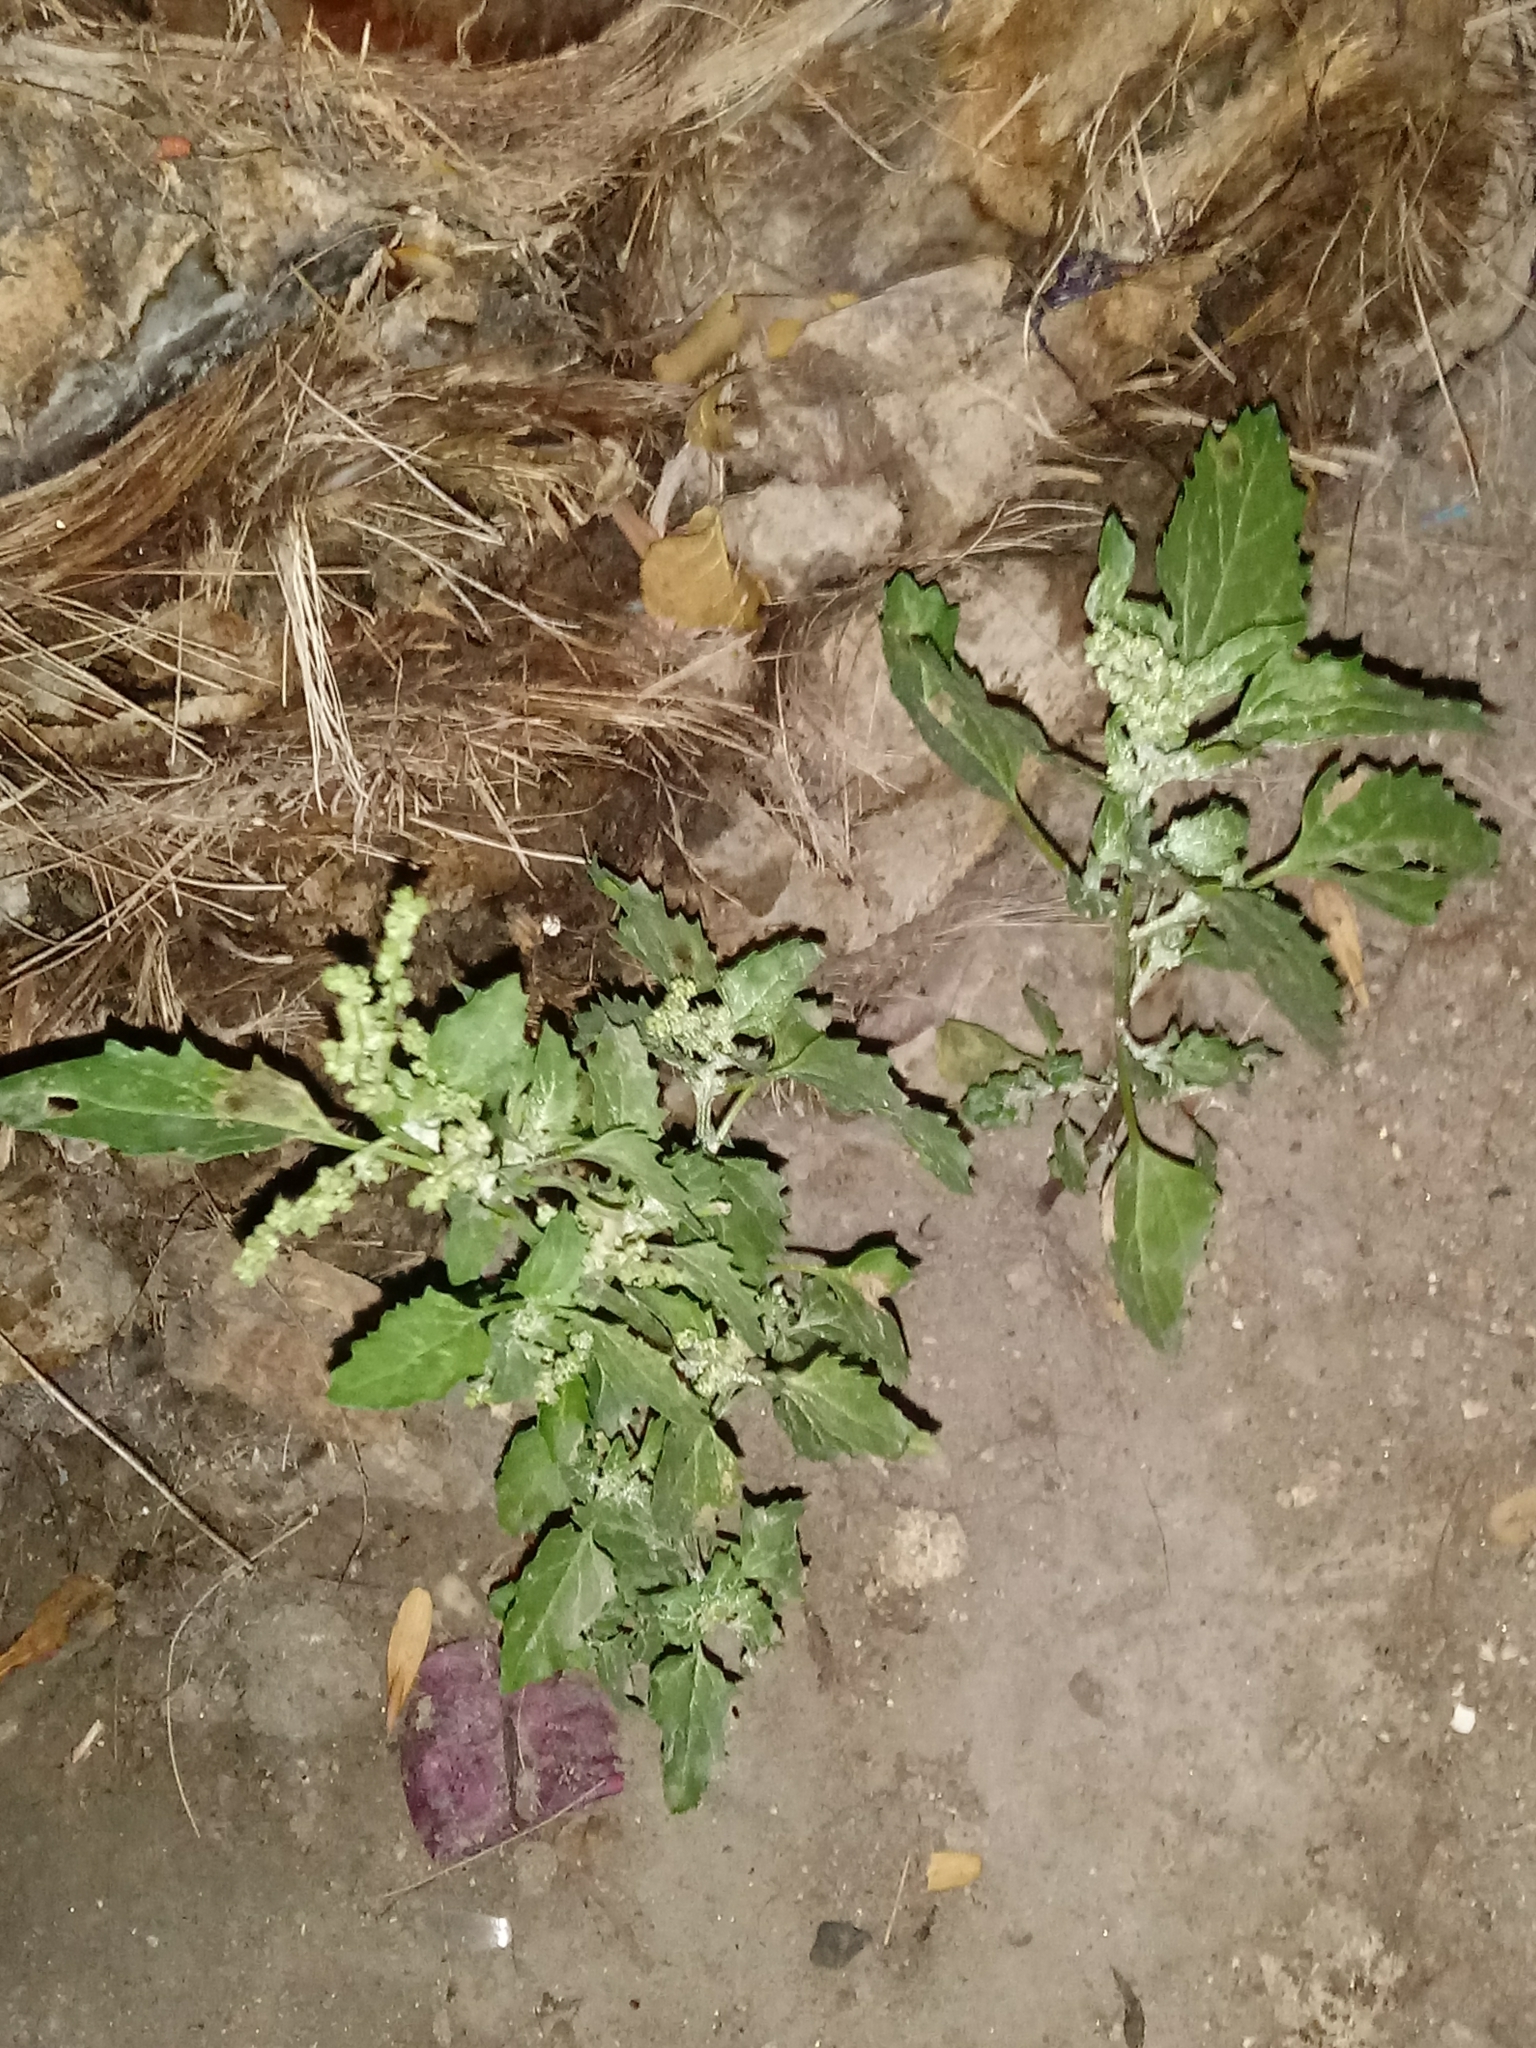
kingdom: Plantae
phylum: Tracheophyta
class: Magnoliopsida
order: Caryophyllales
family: Amaranthaceae
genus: Chenopodiastrum
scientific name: Chenopodiastrum murale
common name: Sowbane
